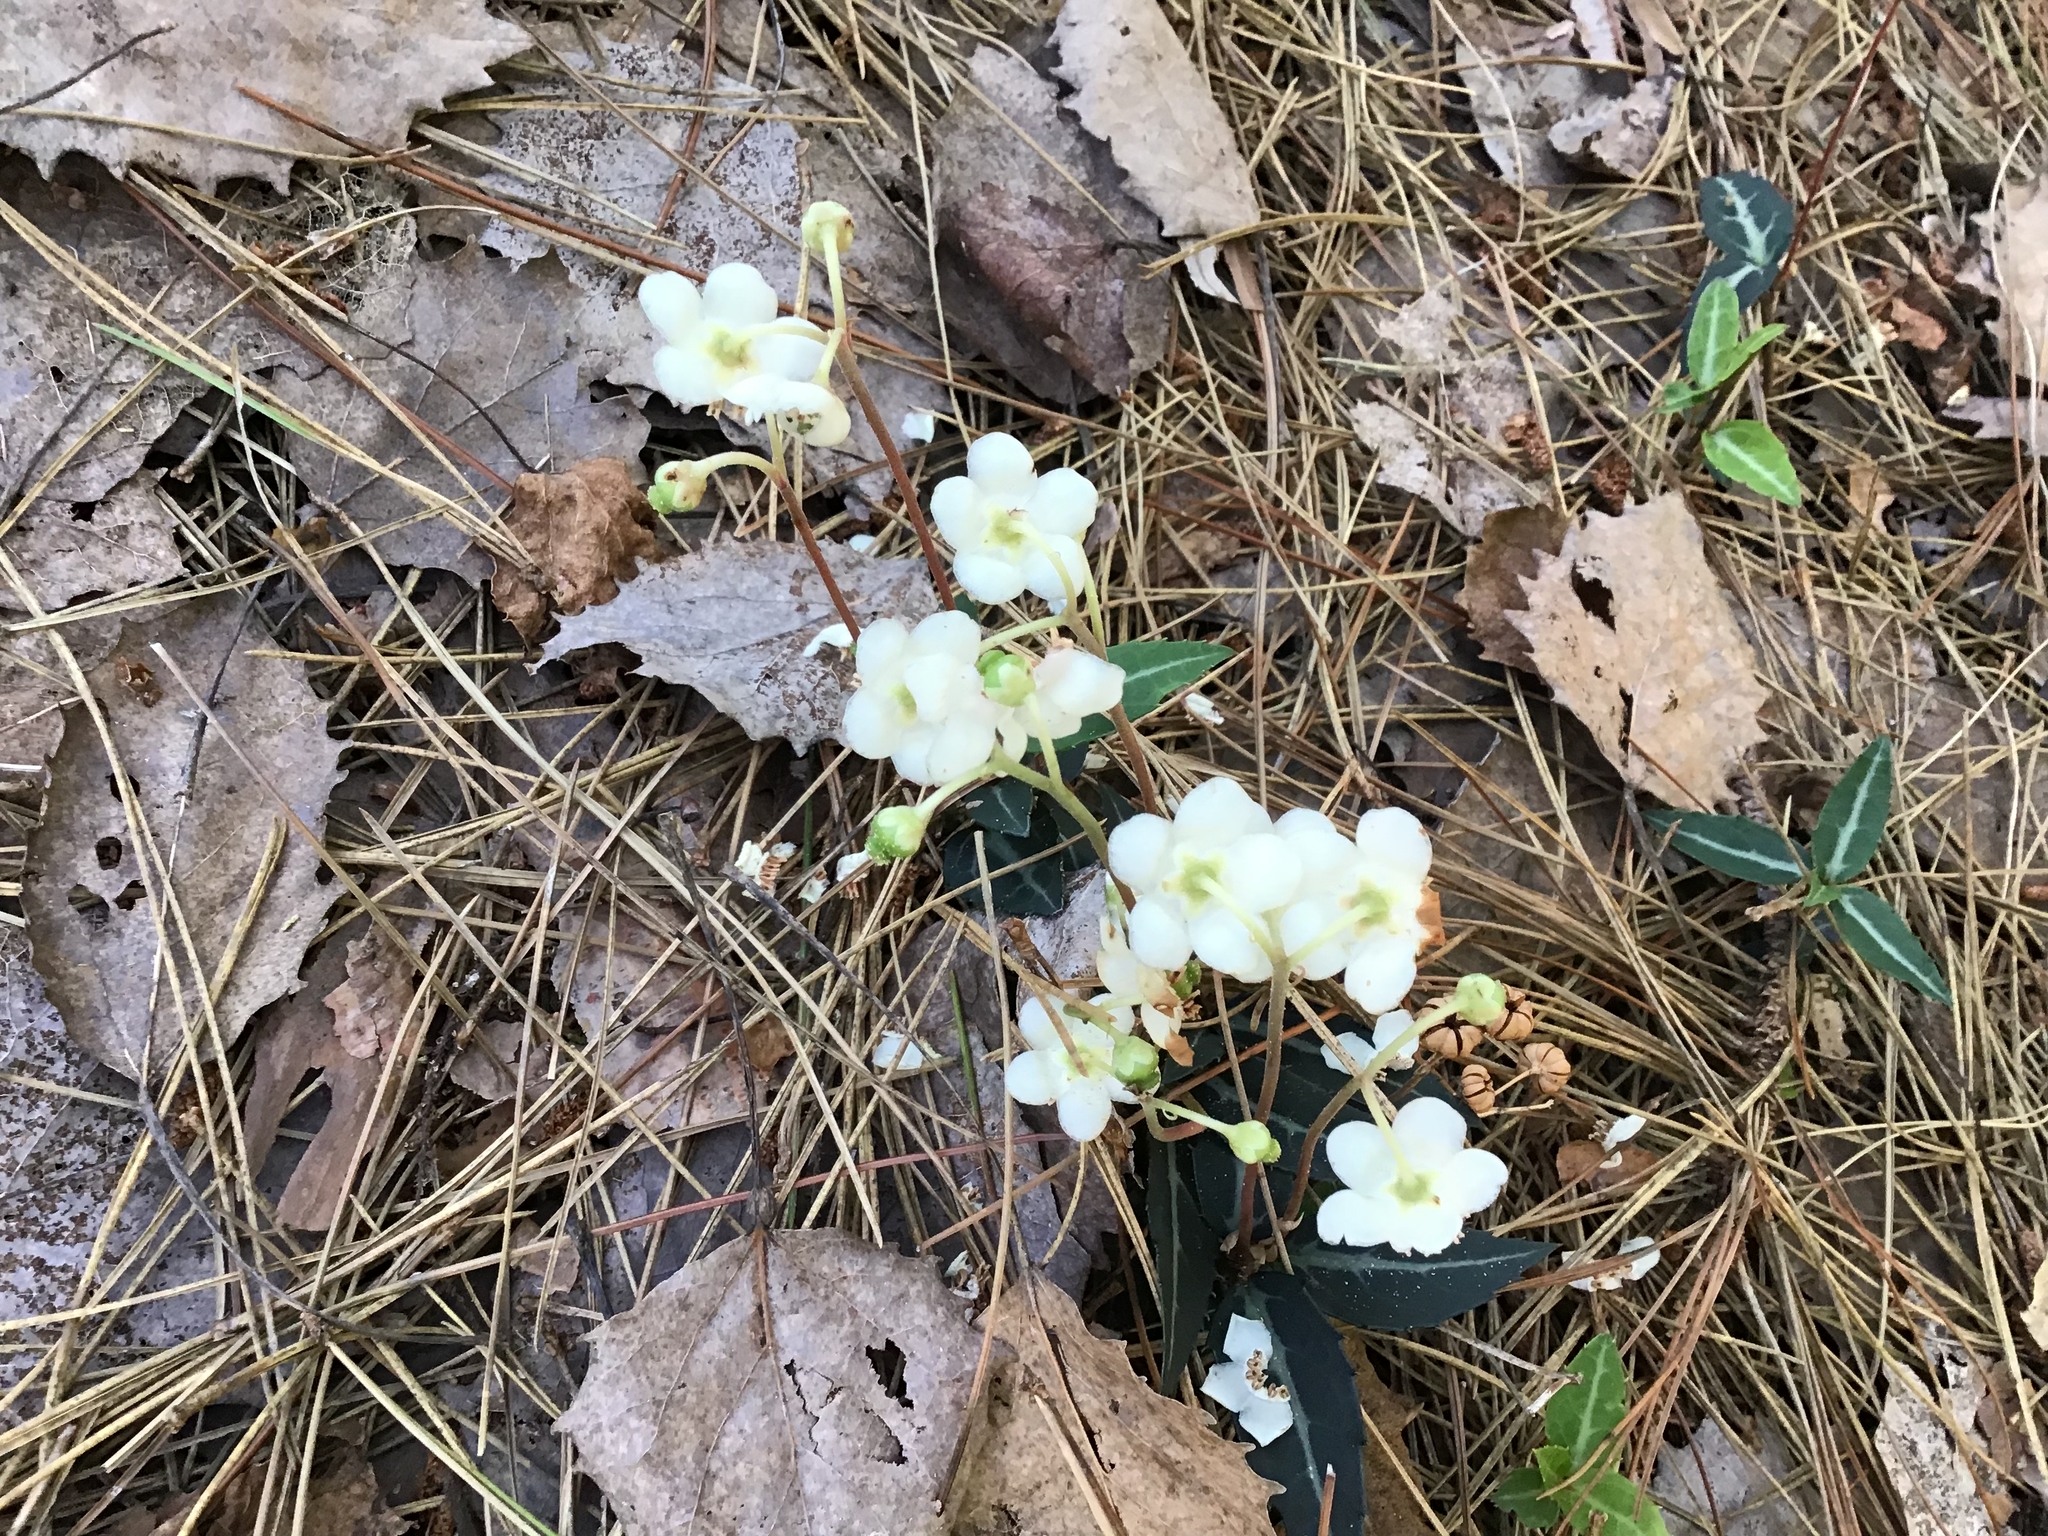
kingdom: Plantae
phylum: Tracheophyta
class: Magnoliopsida
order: Ericales
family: Ericaceae
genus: Chimaphila
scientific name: Chimaphila maculata
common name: Spotted pipsissewa
